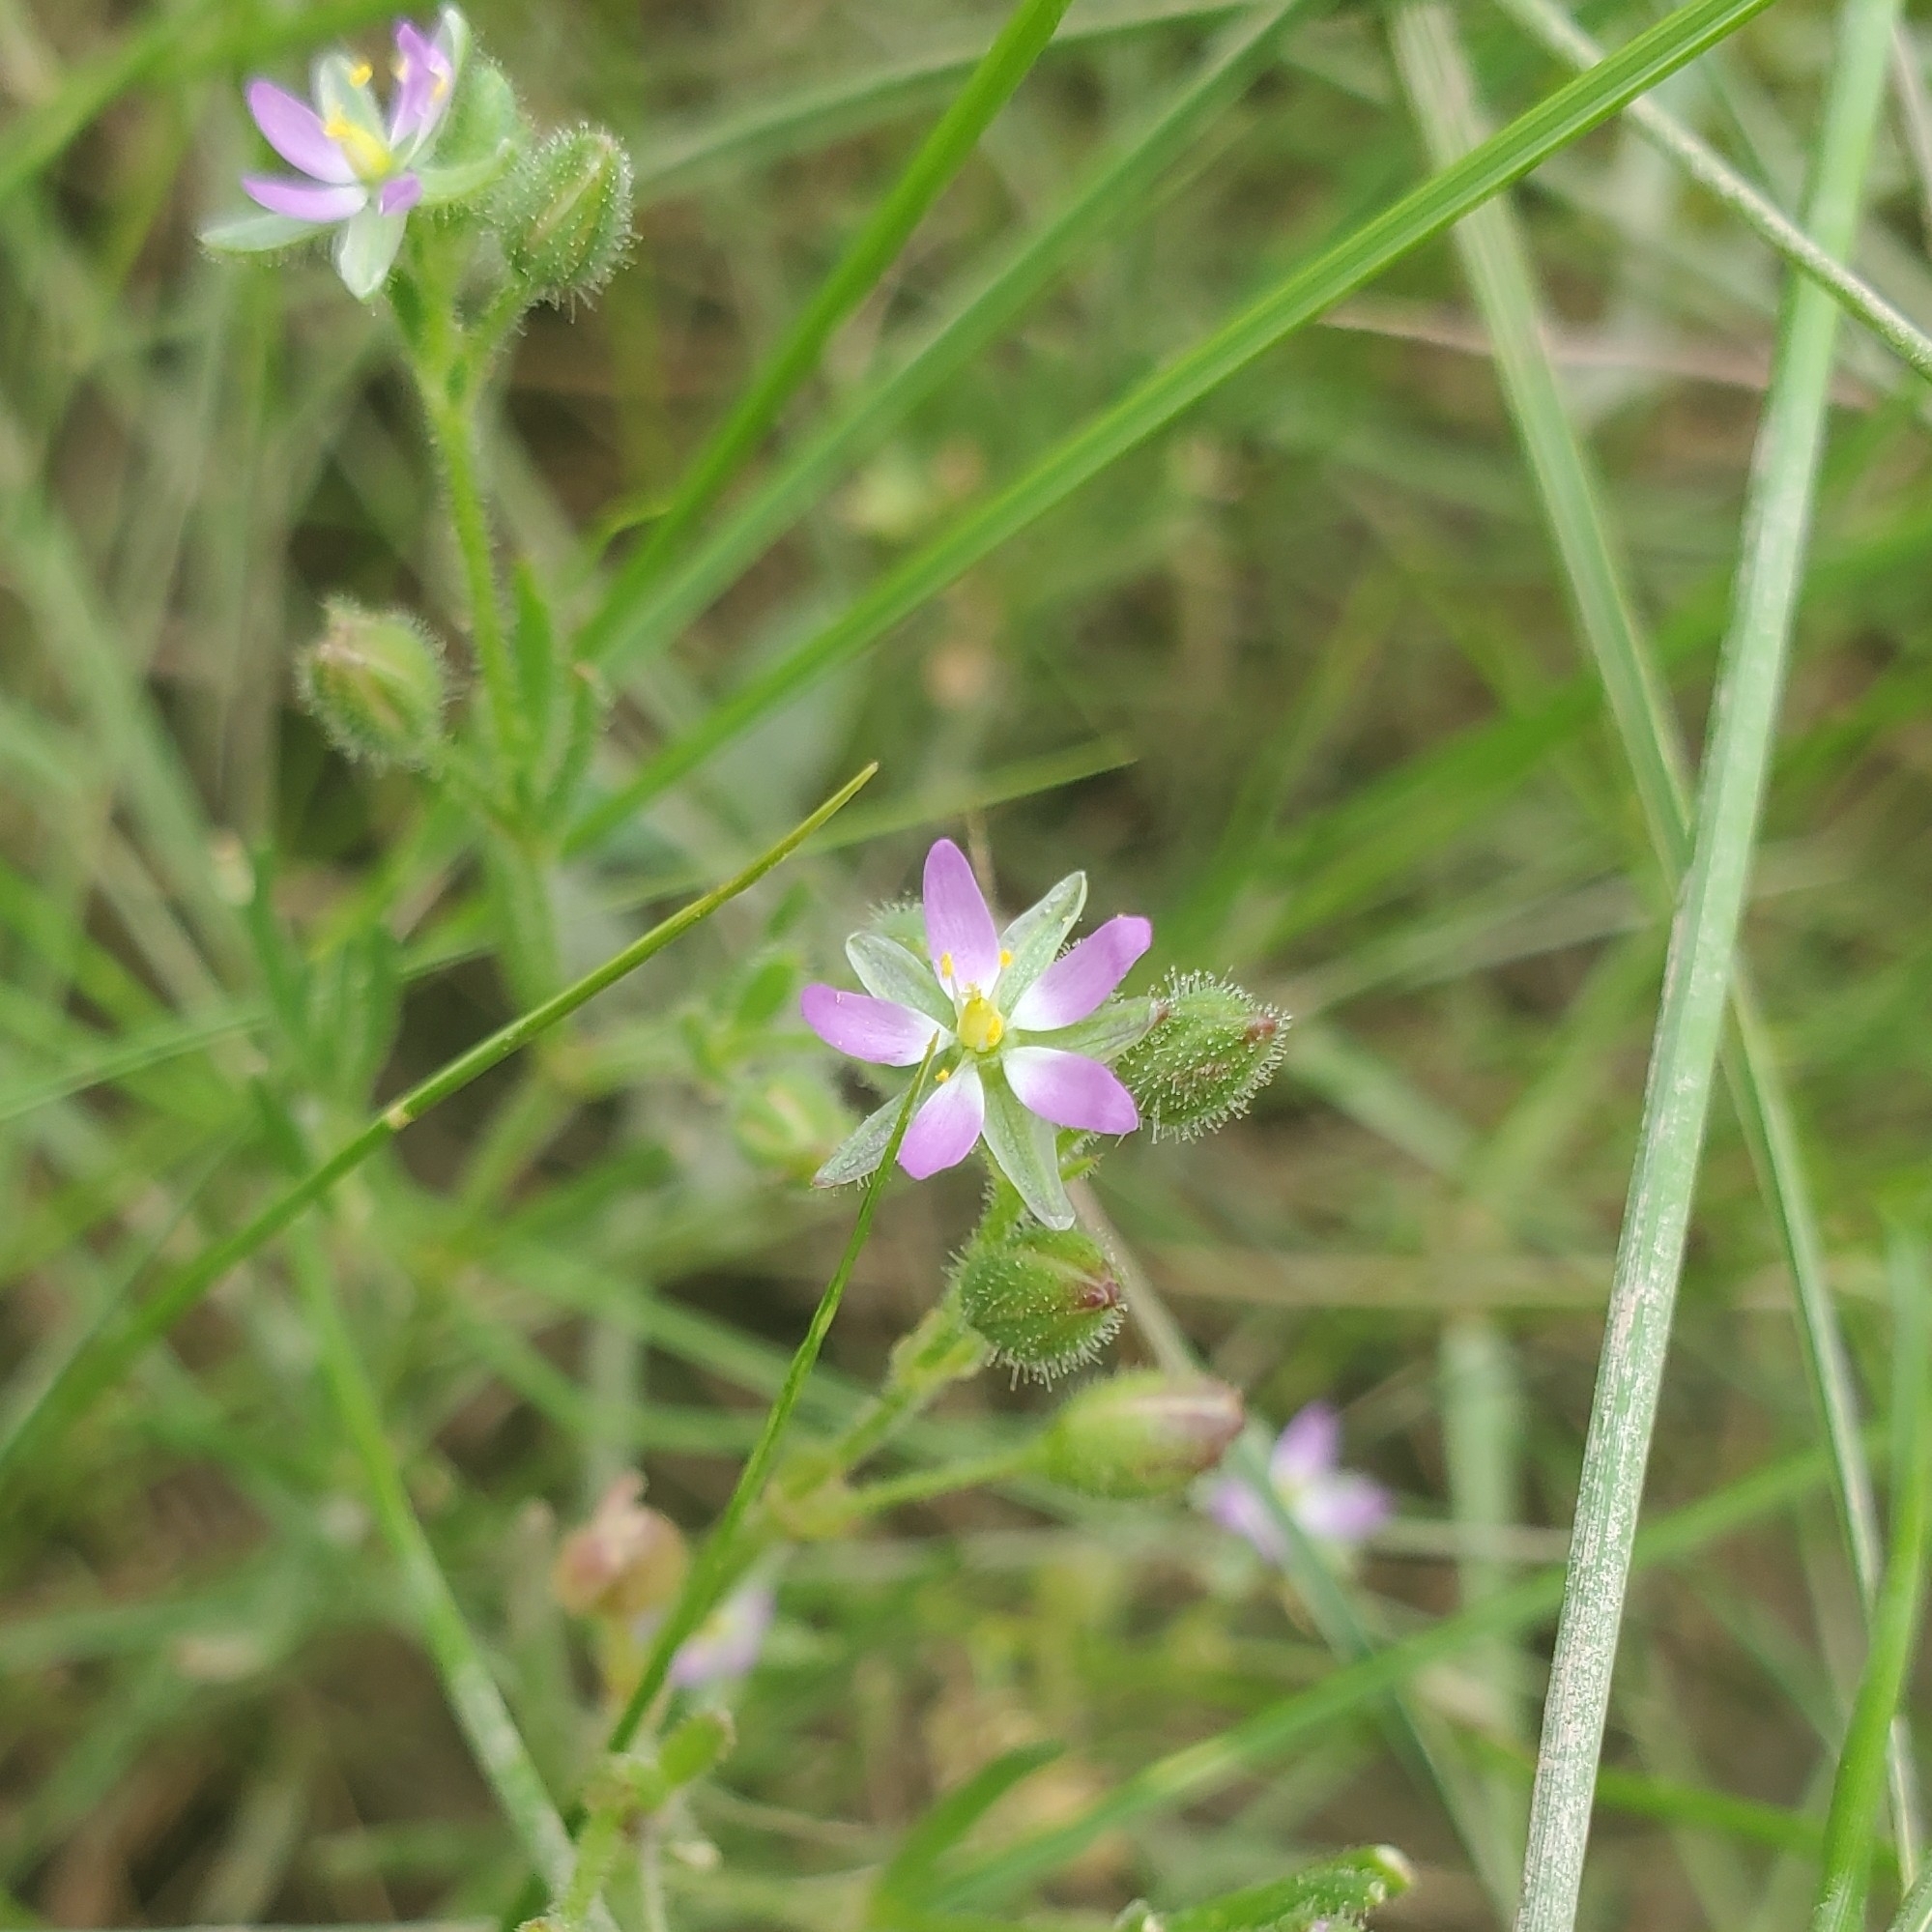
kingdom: Plantae
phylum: Tracheophyta
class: Magnoliopsida
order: Caryophyllales
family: Caryophyllaceae
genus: Spergularia
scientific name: Spergularia marina
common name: Lesser sea-spurrey
